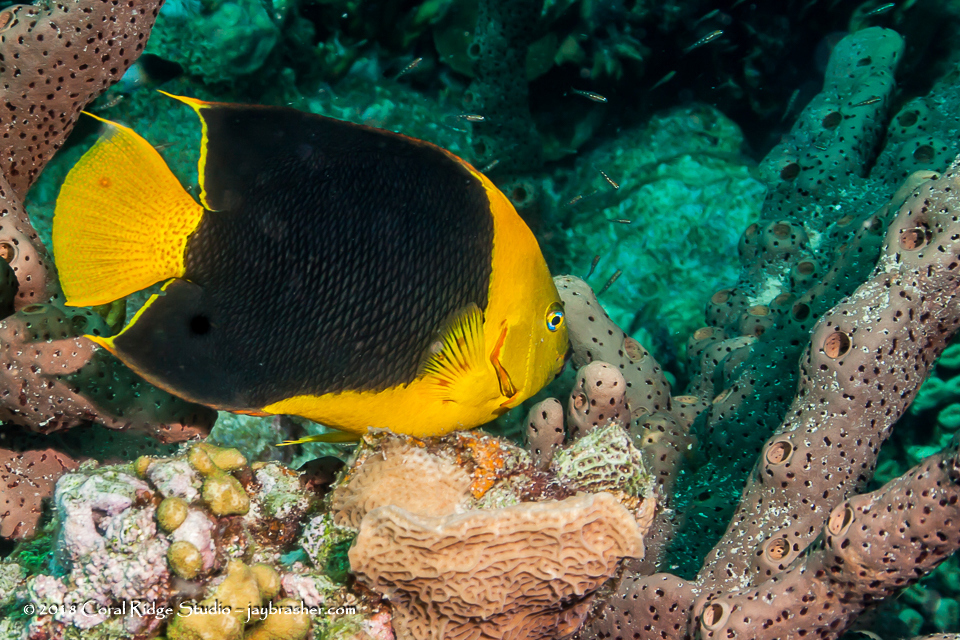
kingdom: Animalia
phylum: Chordata
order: Perciformes
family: Pomacanthidae
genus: Holacanthus
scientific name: Holacanthus tricolor
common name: Rock beauty
